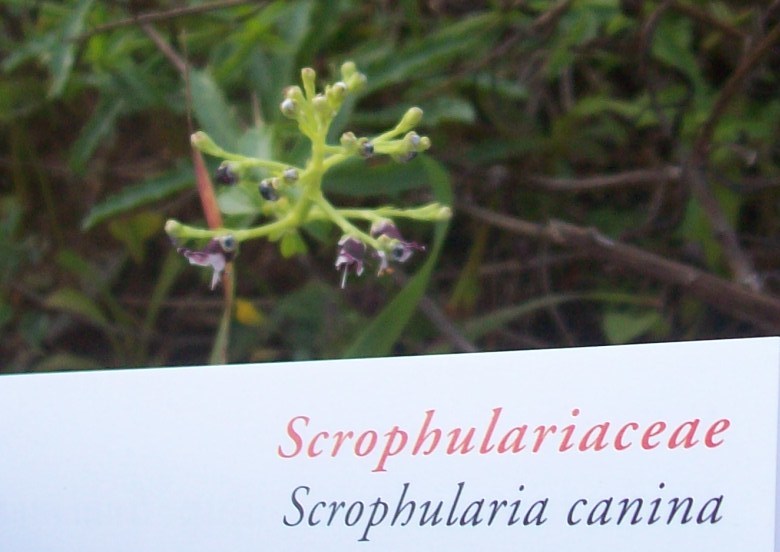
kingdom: Plantae
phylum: Tracheophyta
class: Magnoliopsida
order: Lamiales
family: Scrophulariaceae
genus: Scrophularia
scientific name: Scrophularia canina
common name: French figwort
